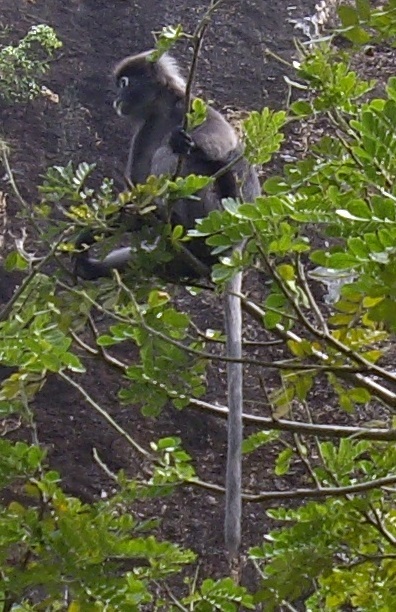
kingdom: Animalia
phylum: Chordata
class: Mammalia
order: Primates
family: Cercopithecidae
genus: Trachypithecus
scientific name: Trachypithecus obscurus
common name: Dusky leaf-monkey
